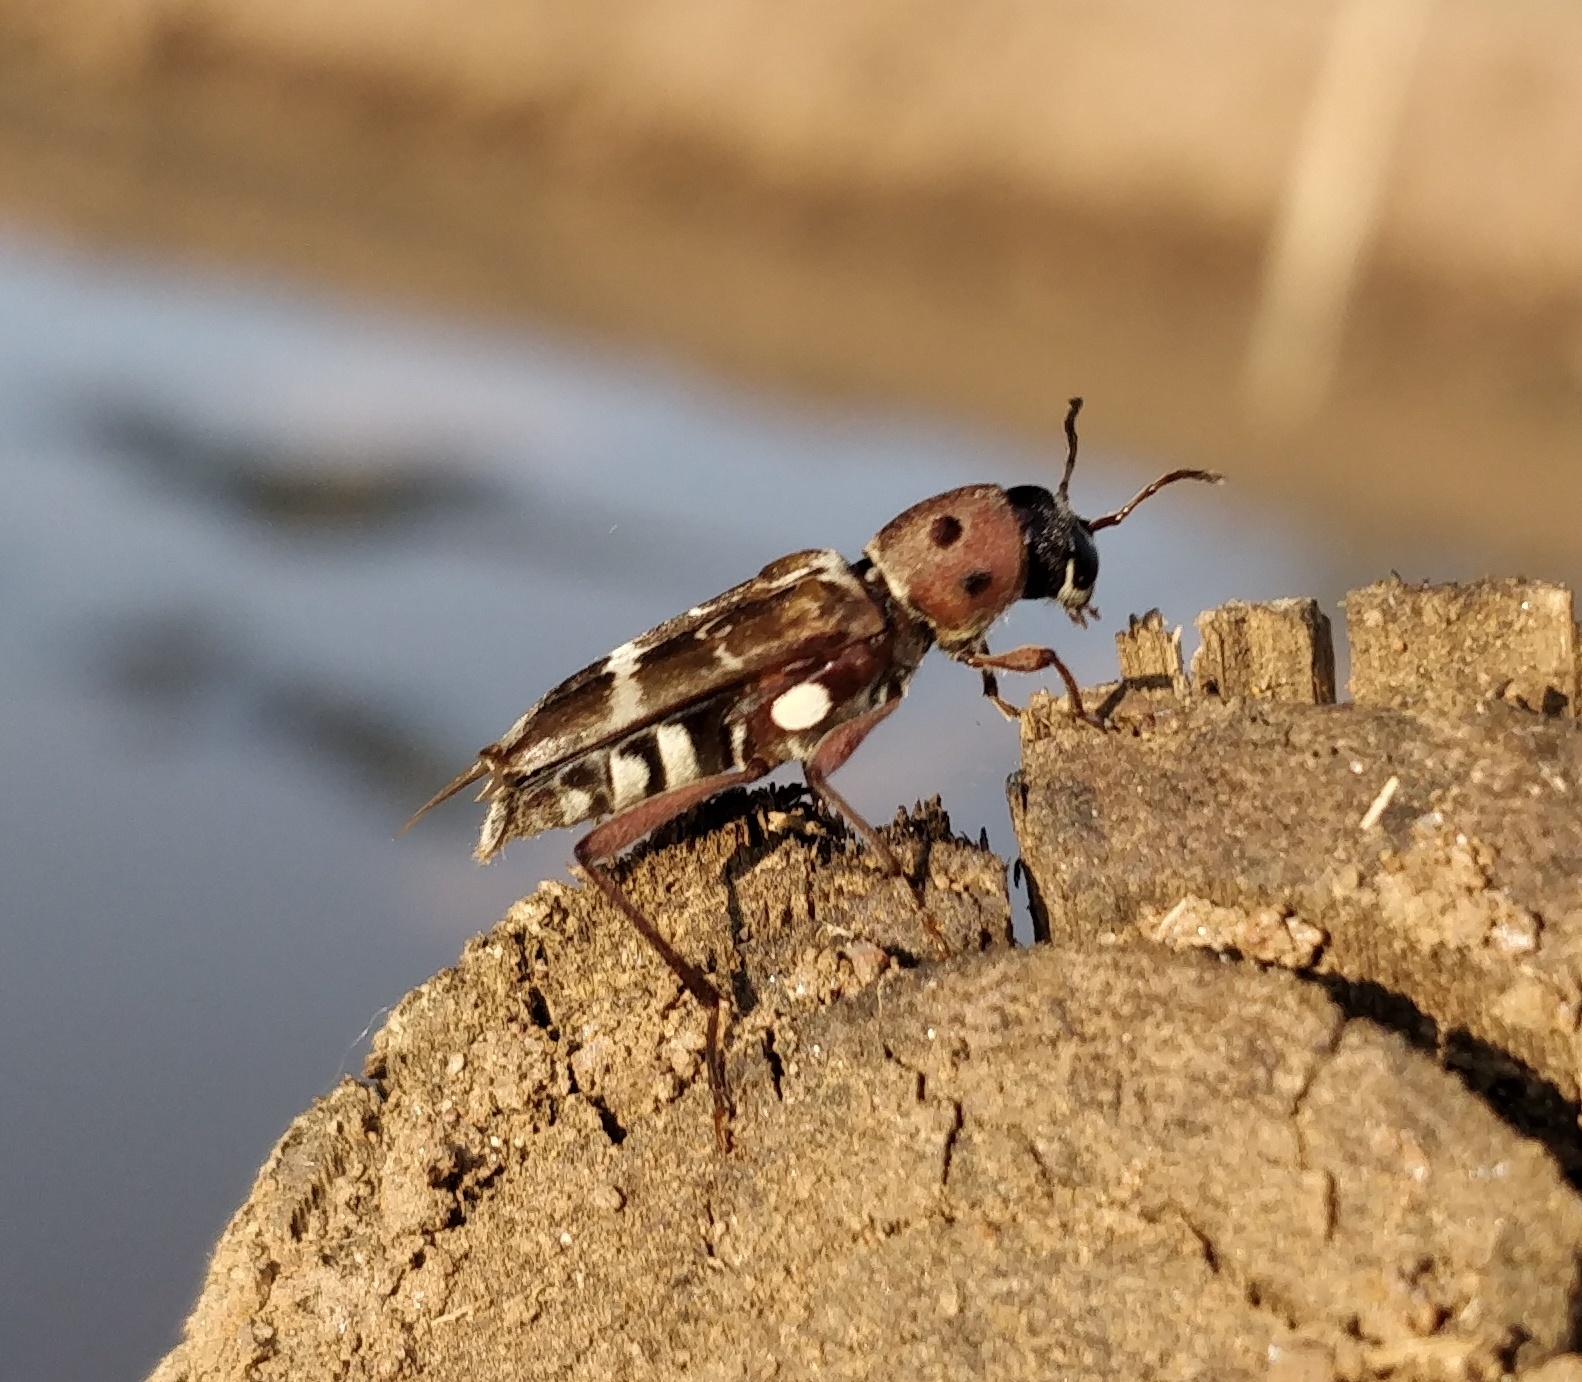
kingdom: Animalia
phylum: Arthropoda
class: Insecta
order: Coleoptera
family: Cerambycidae
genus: Xylotrechus
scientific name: Xylotrechus smei
